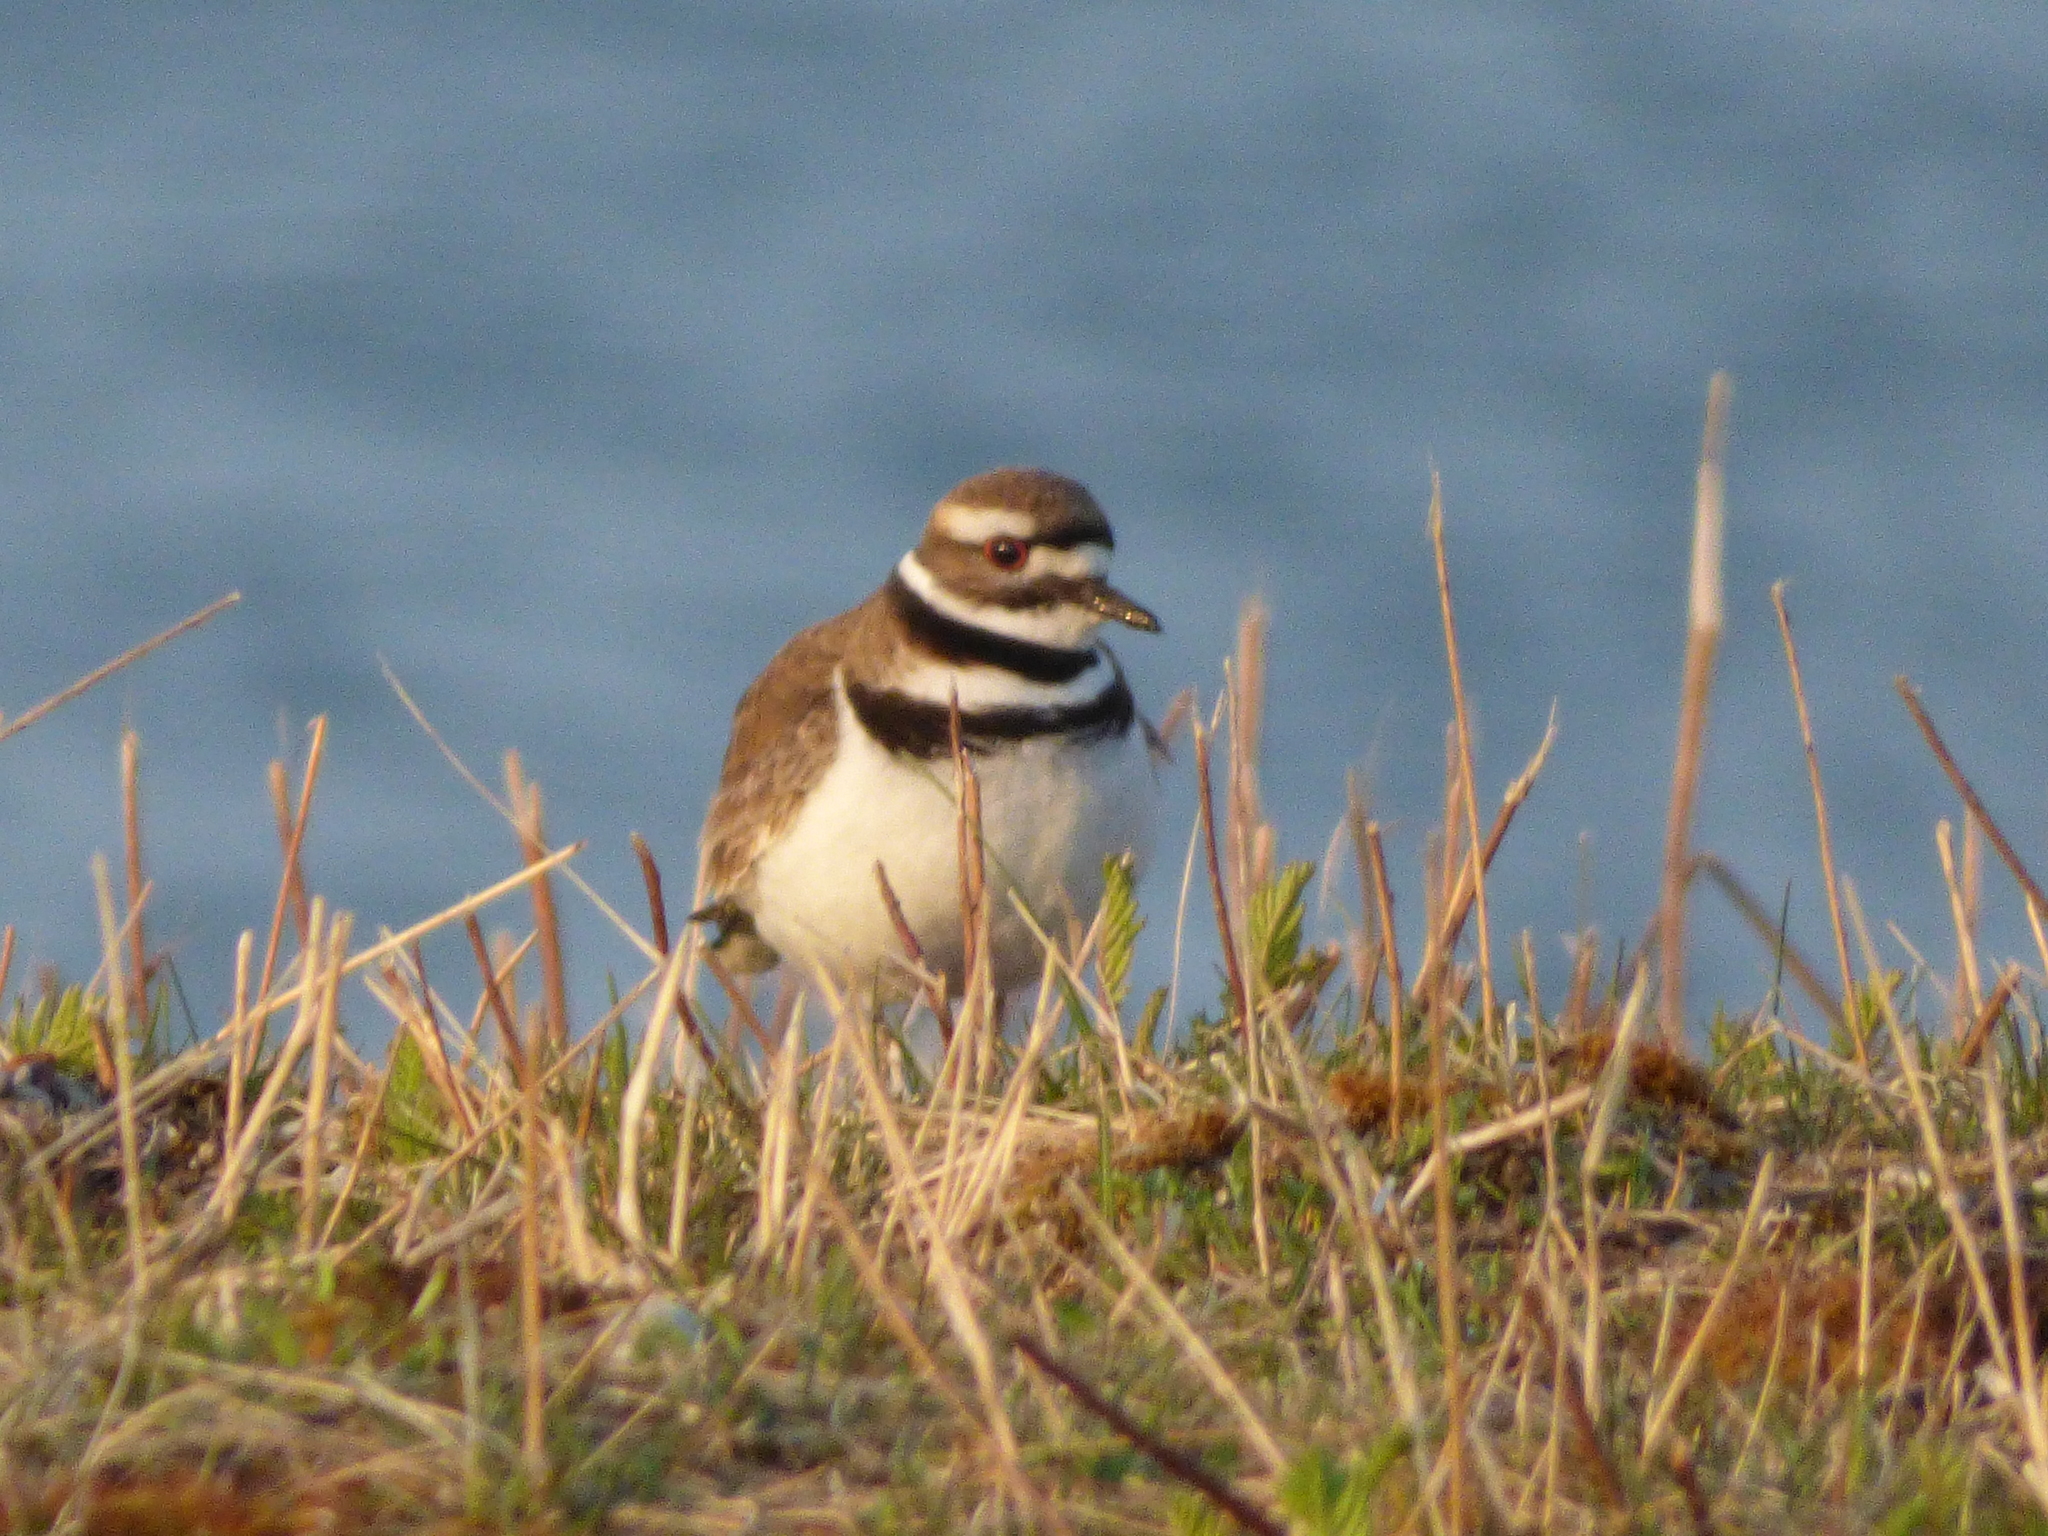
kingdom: Animalia
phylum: Chordata
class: Aves
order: Charadriiformes
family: Charadriidae
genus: Charadrius
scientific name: Charadrius vociferus
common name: Killdeer
